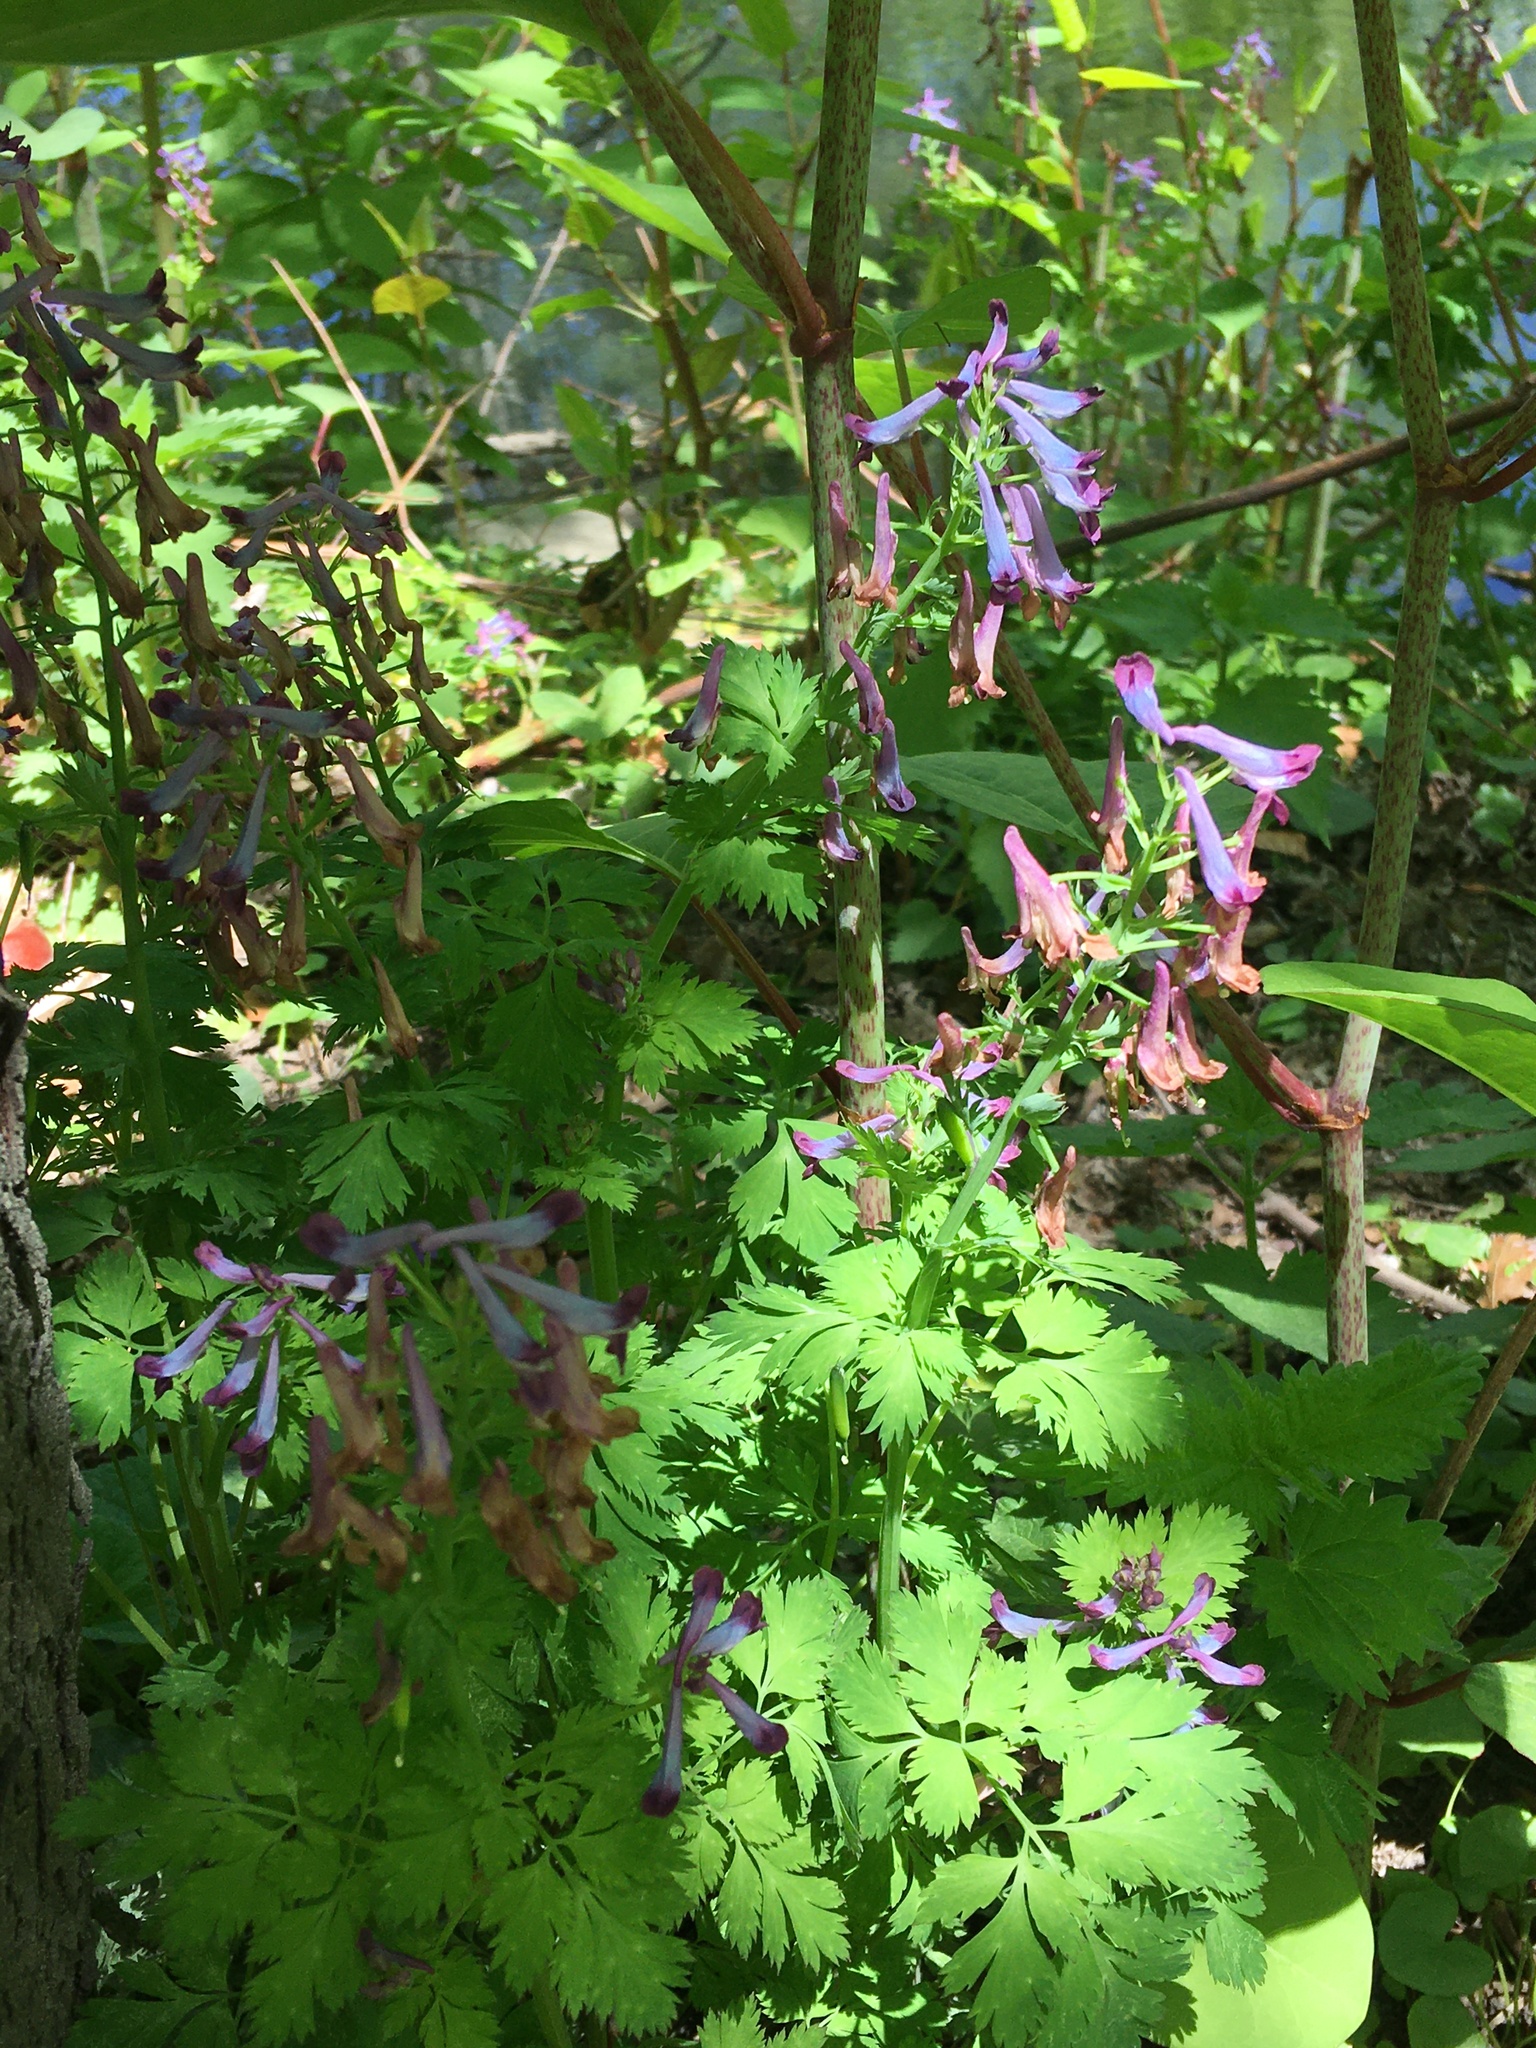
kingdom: Plantae
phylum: Tracheophyta
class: Magnoliopsida
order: Ranunculales
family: Papaveraceae
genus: Corydalis
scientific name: Corydalis incisa
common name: Incised fumewort
